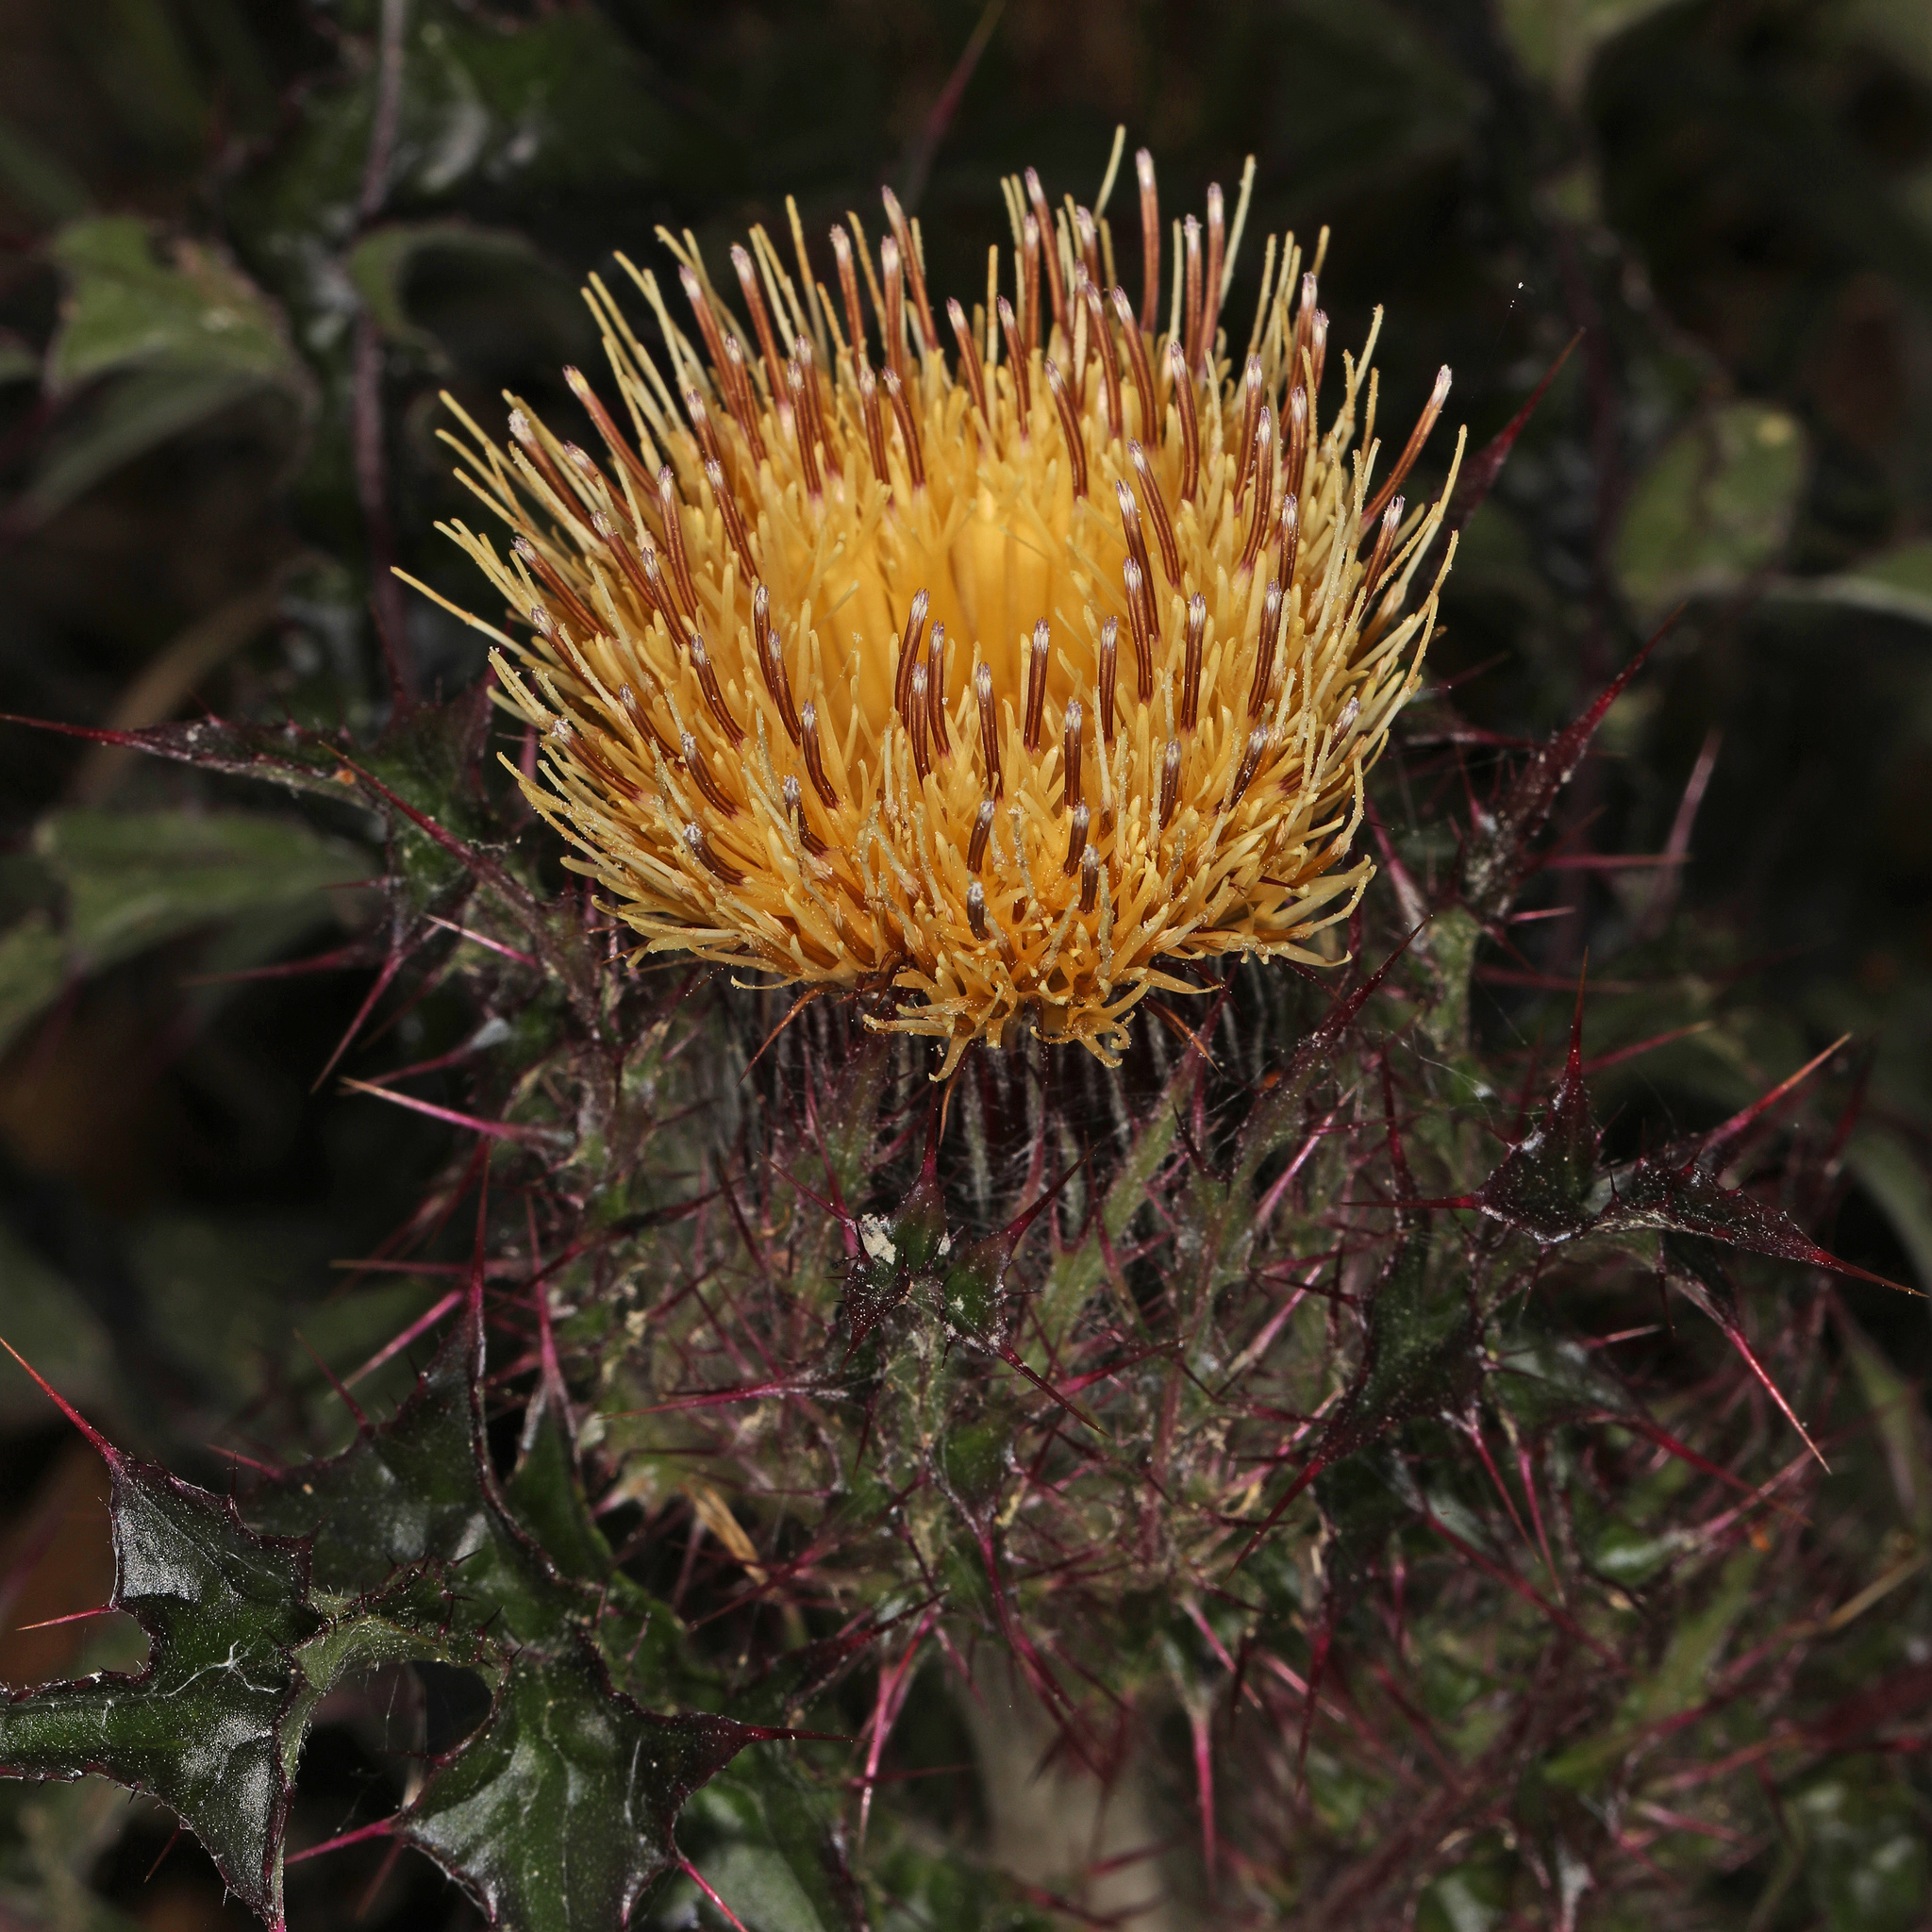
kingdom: Plantae
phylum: Tracheophyta
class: Magnoliopsida
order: Asterales
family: Asteraceae
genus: Cirsium
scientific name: Cirsium horridulum
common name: Bristly thistle
